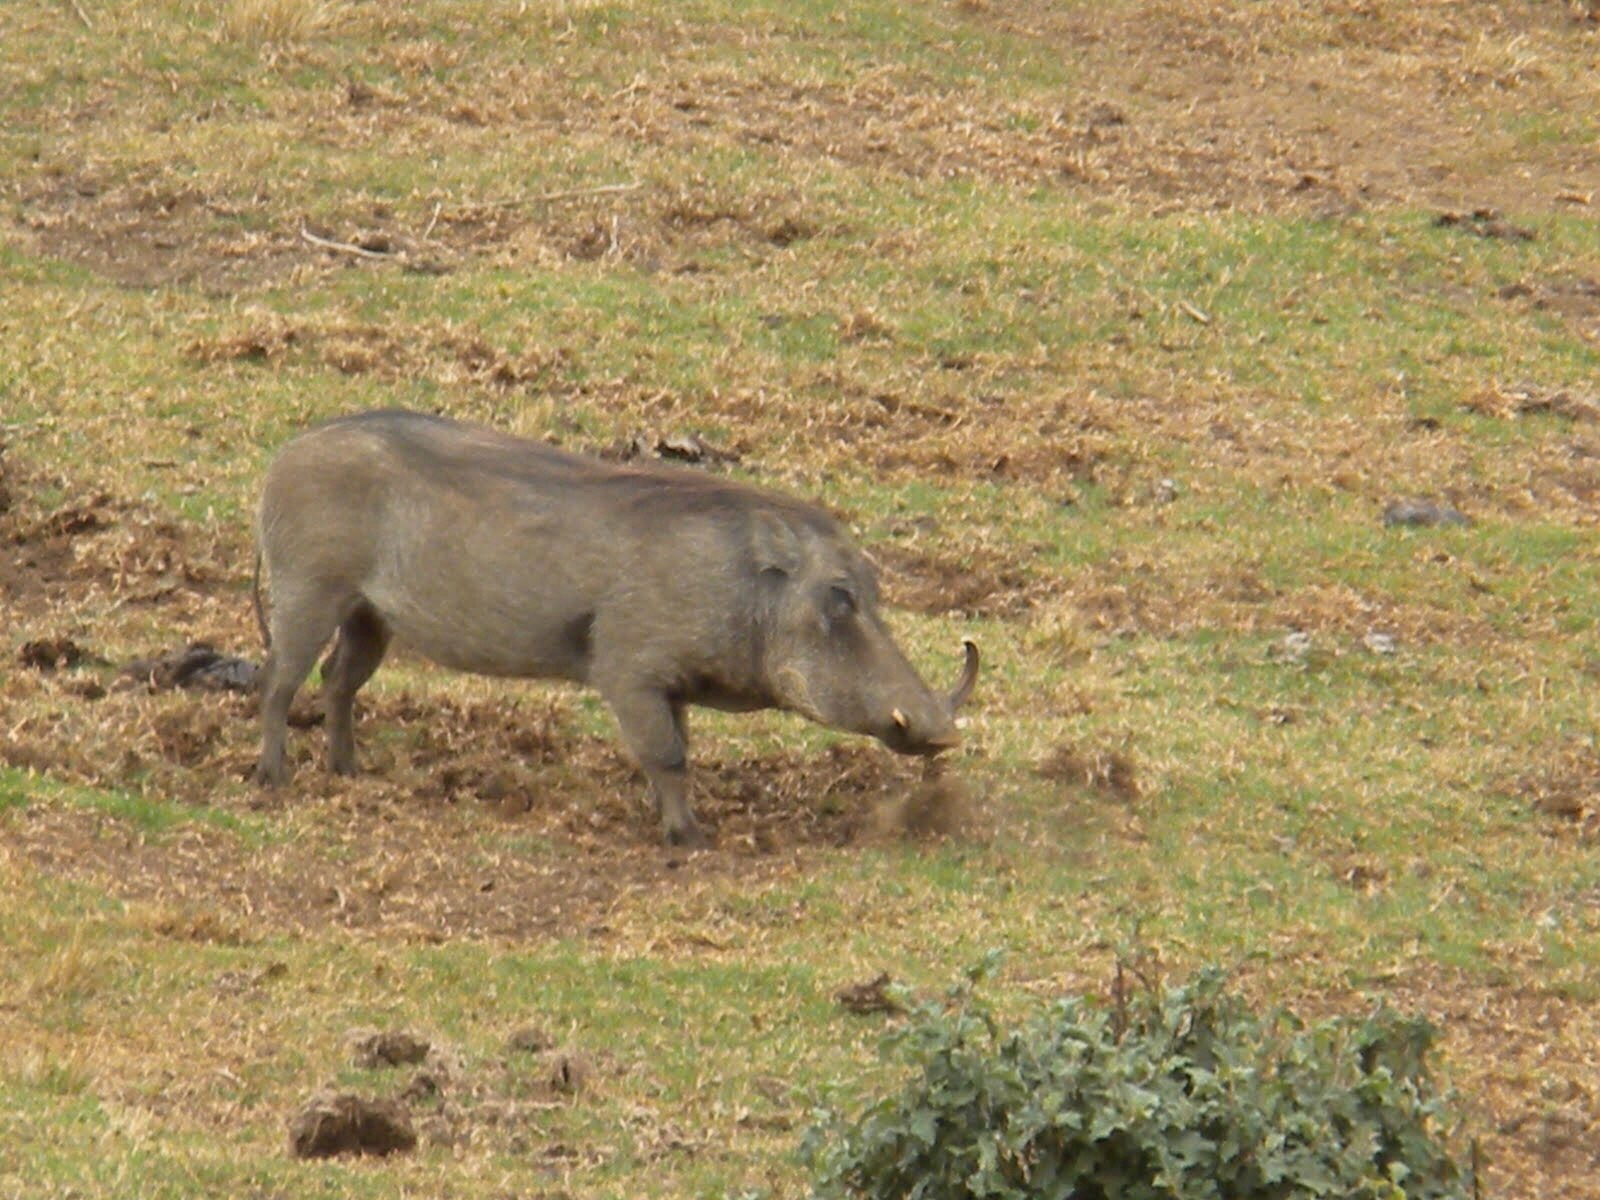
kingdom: Animalia
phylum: Chordata
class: Mammalia
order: Artiodactyla
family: Suidae
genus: Phacochoerus
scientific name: Phacochoerus africanus
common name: Common warthog
